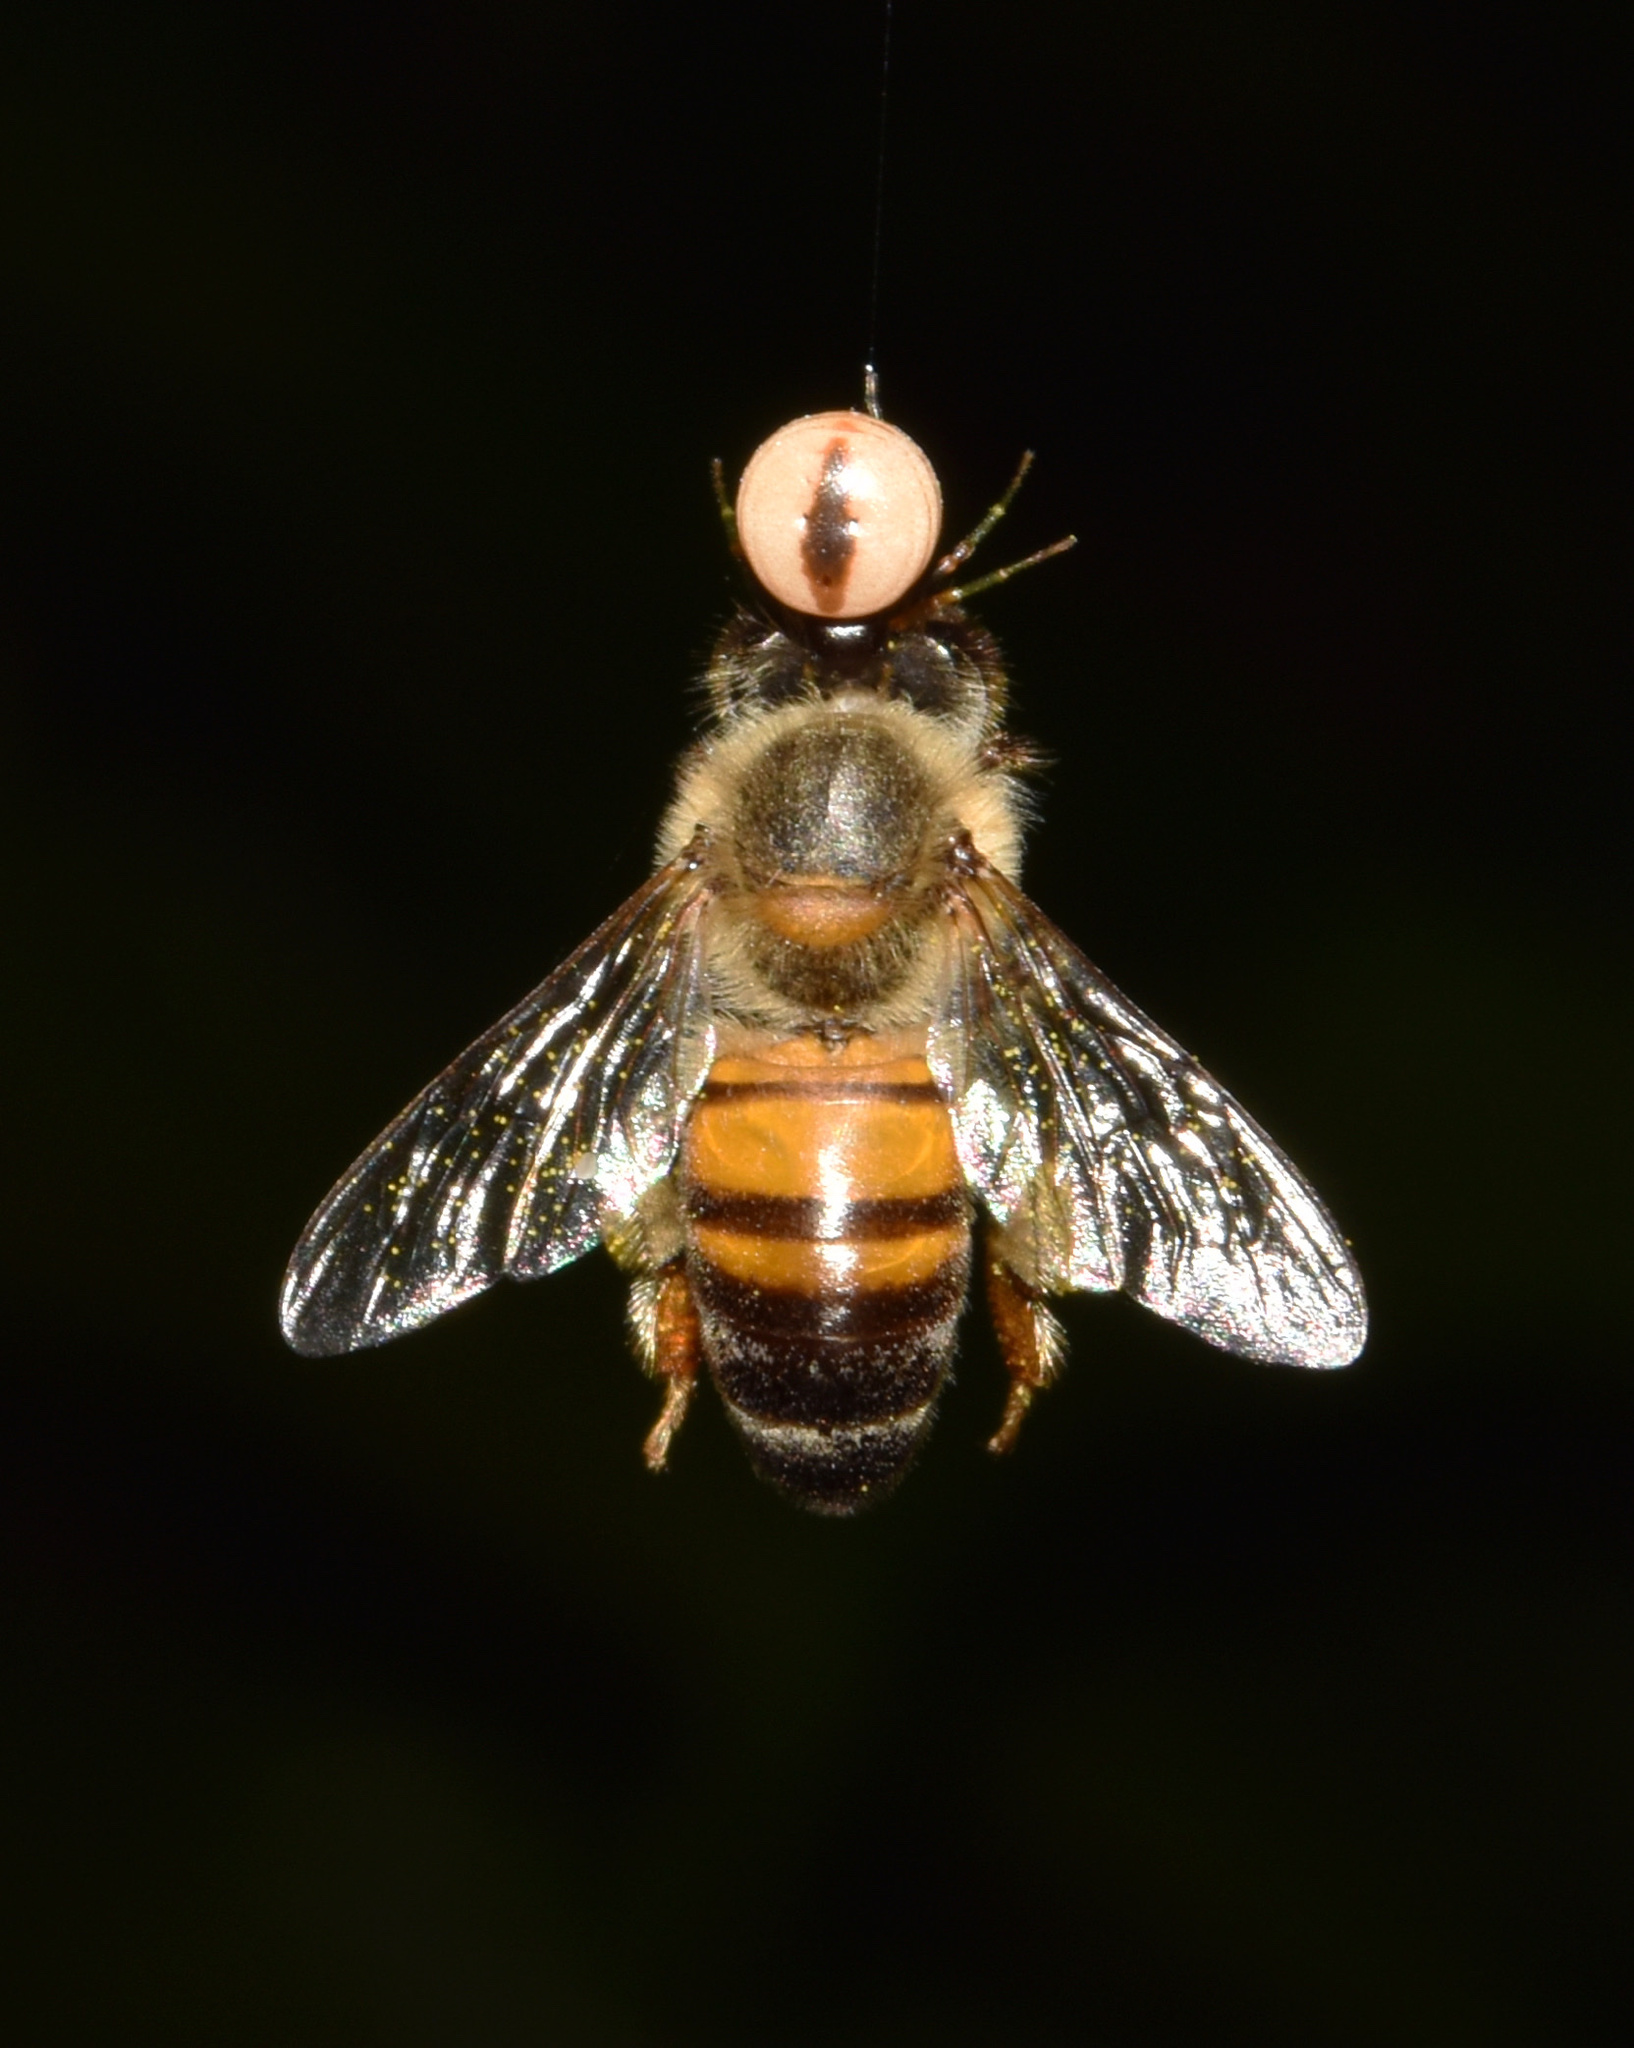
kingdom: Animalia
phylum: Arthropoda
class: Insecta
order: Hymenoptera
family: Apidae
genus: Apis
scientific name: Apis mellifera
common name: Honey bee
